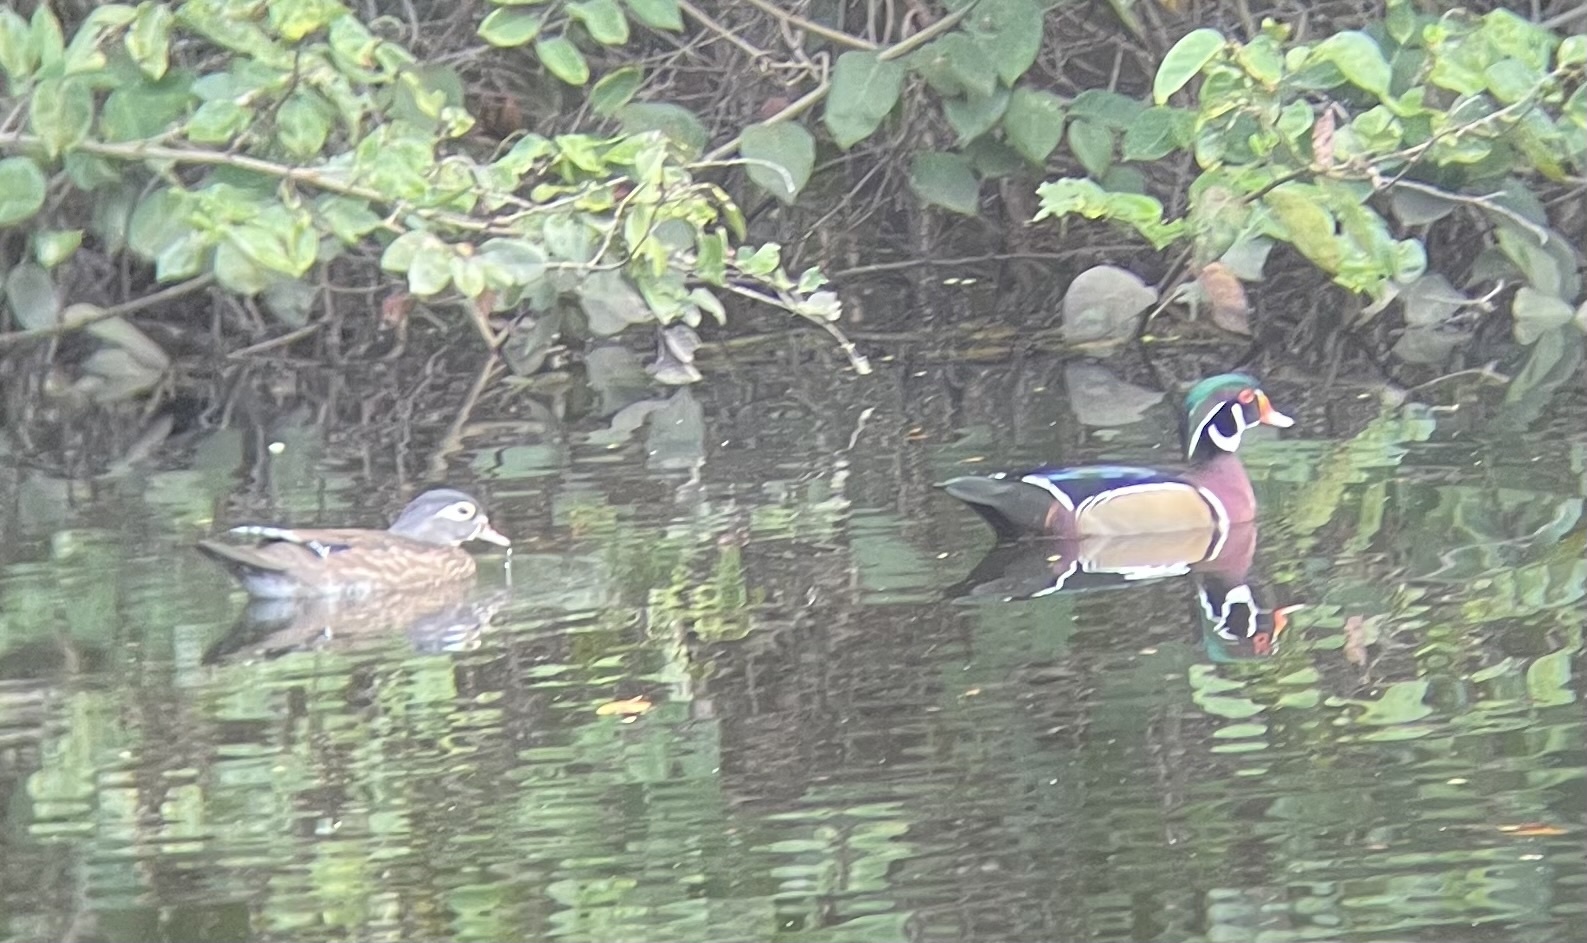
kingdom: Animalia
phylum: Chordata
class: Aves
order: Anseriformes
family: Anatidae
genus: Aix
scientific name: Aix sponsa
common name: Wood duck
